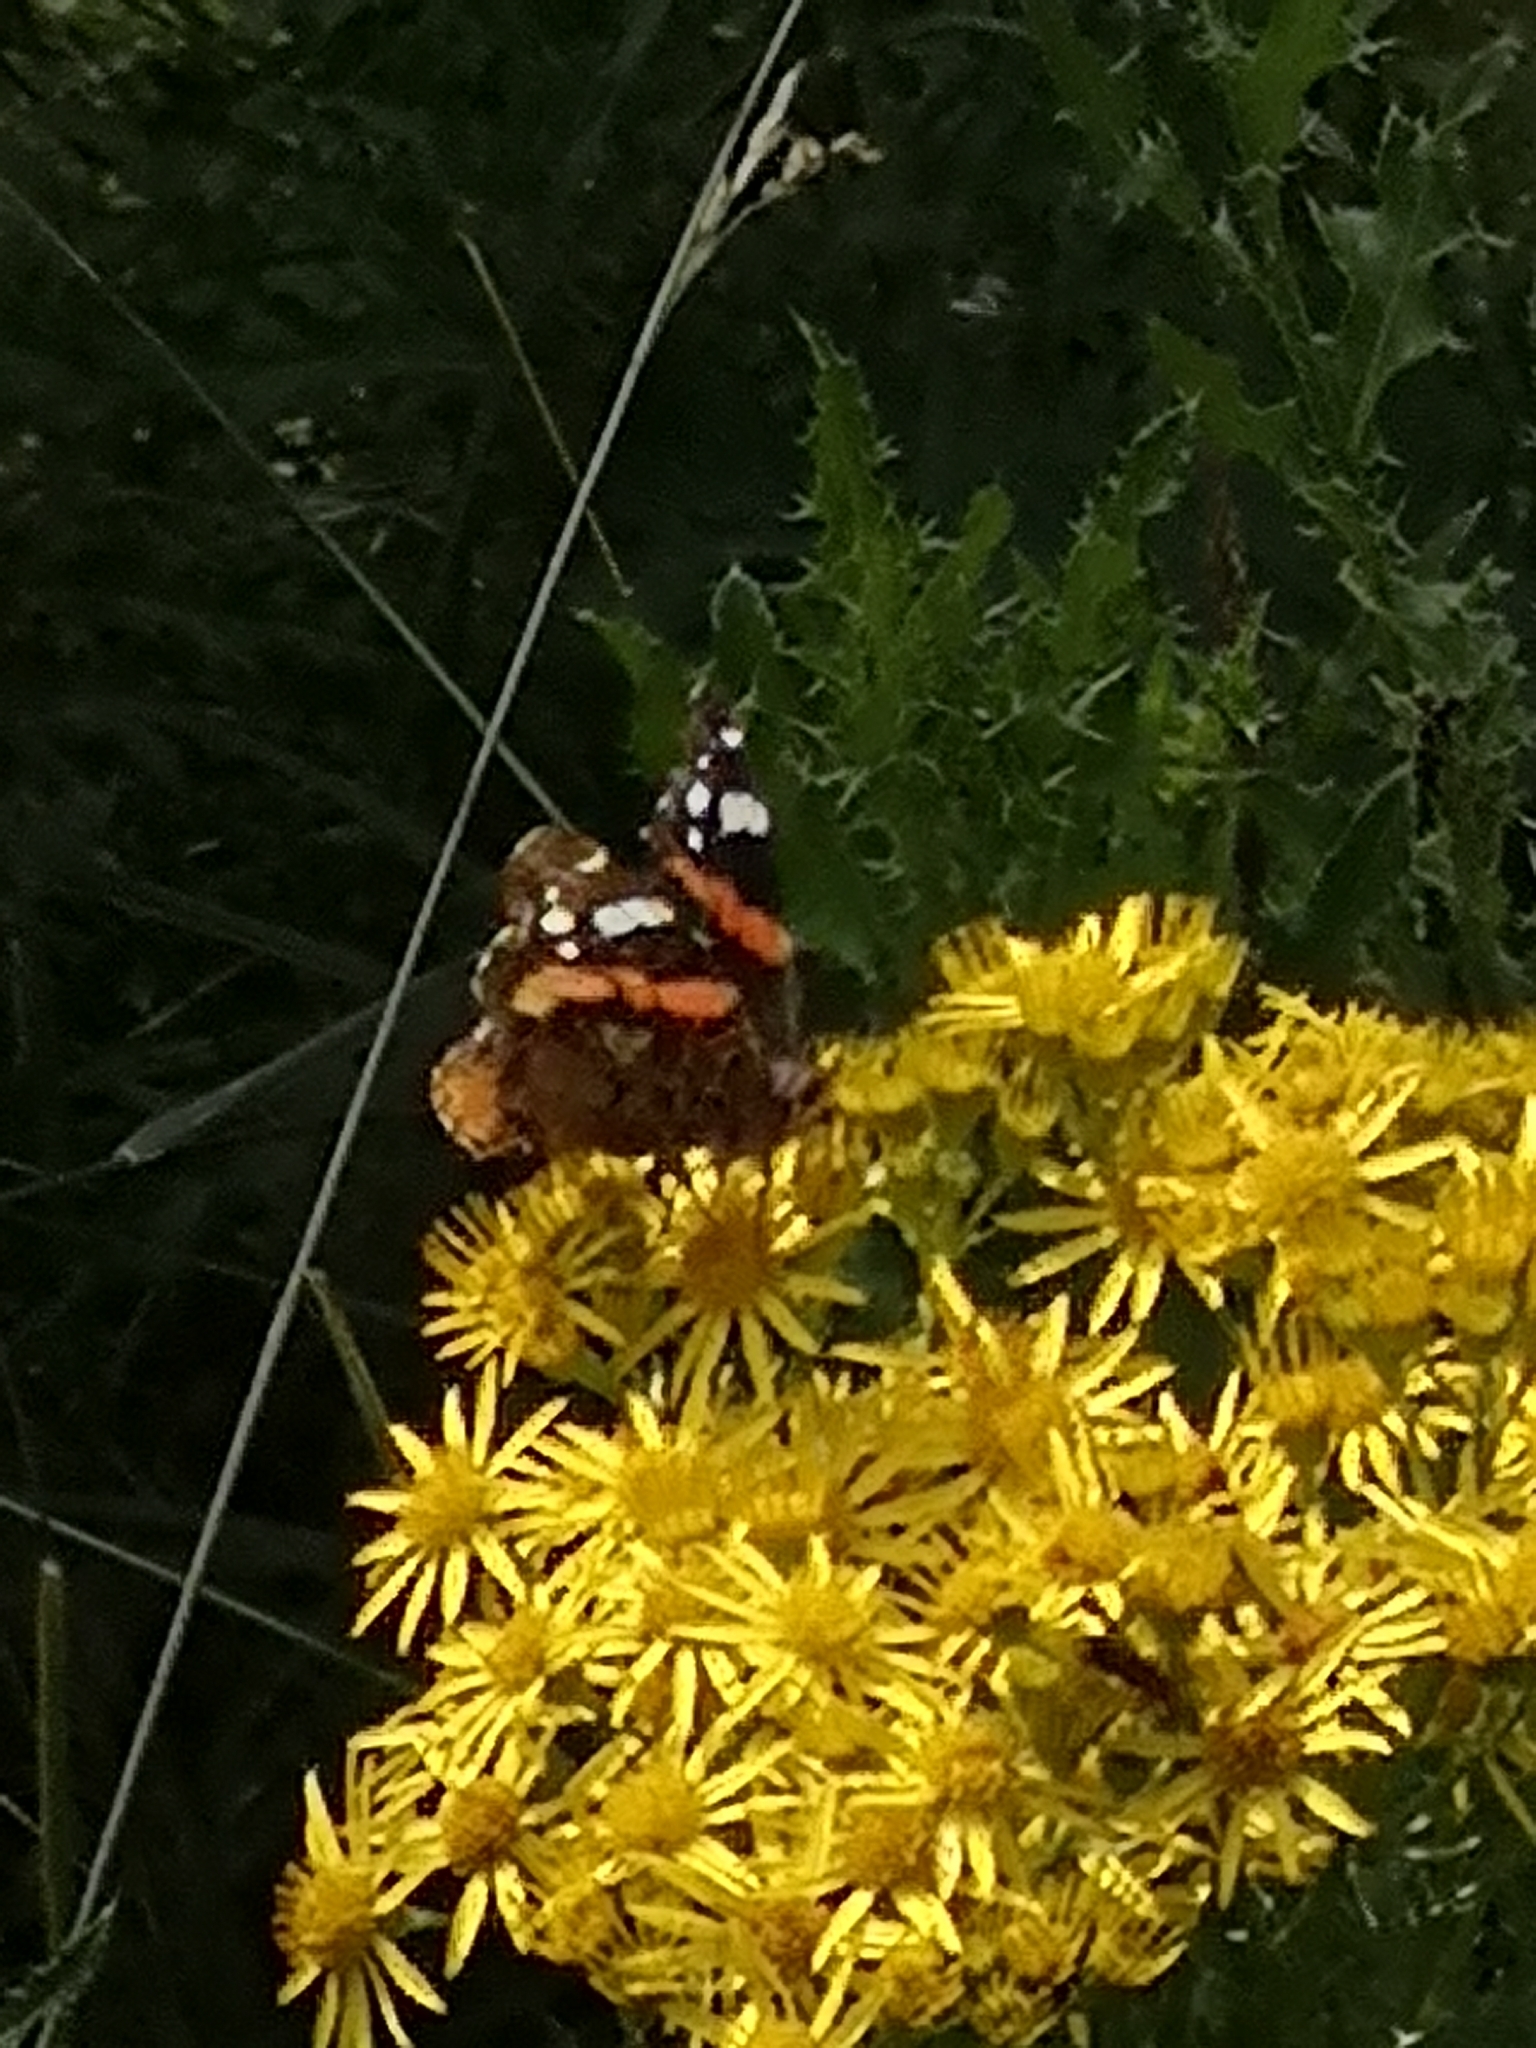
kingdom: Animalia
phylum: Arthropoda
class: Insecta
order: Lepidoptera
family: Nymphalidae
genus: Vanessa
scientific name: Vanessa atalanta
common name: Red admiral
